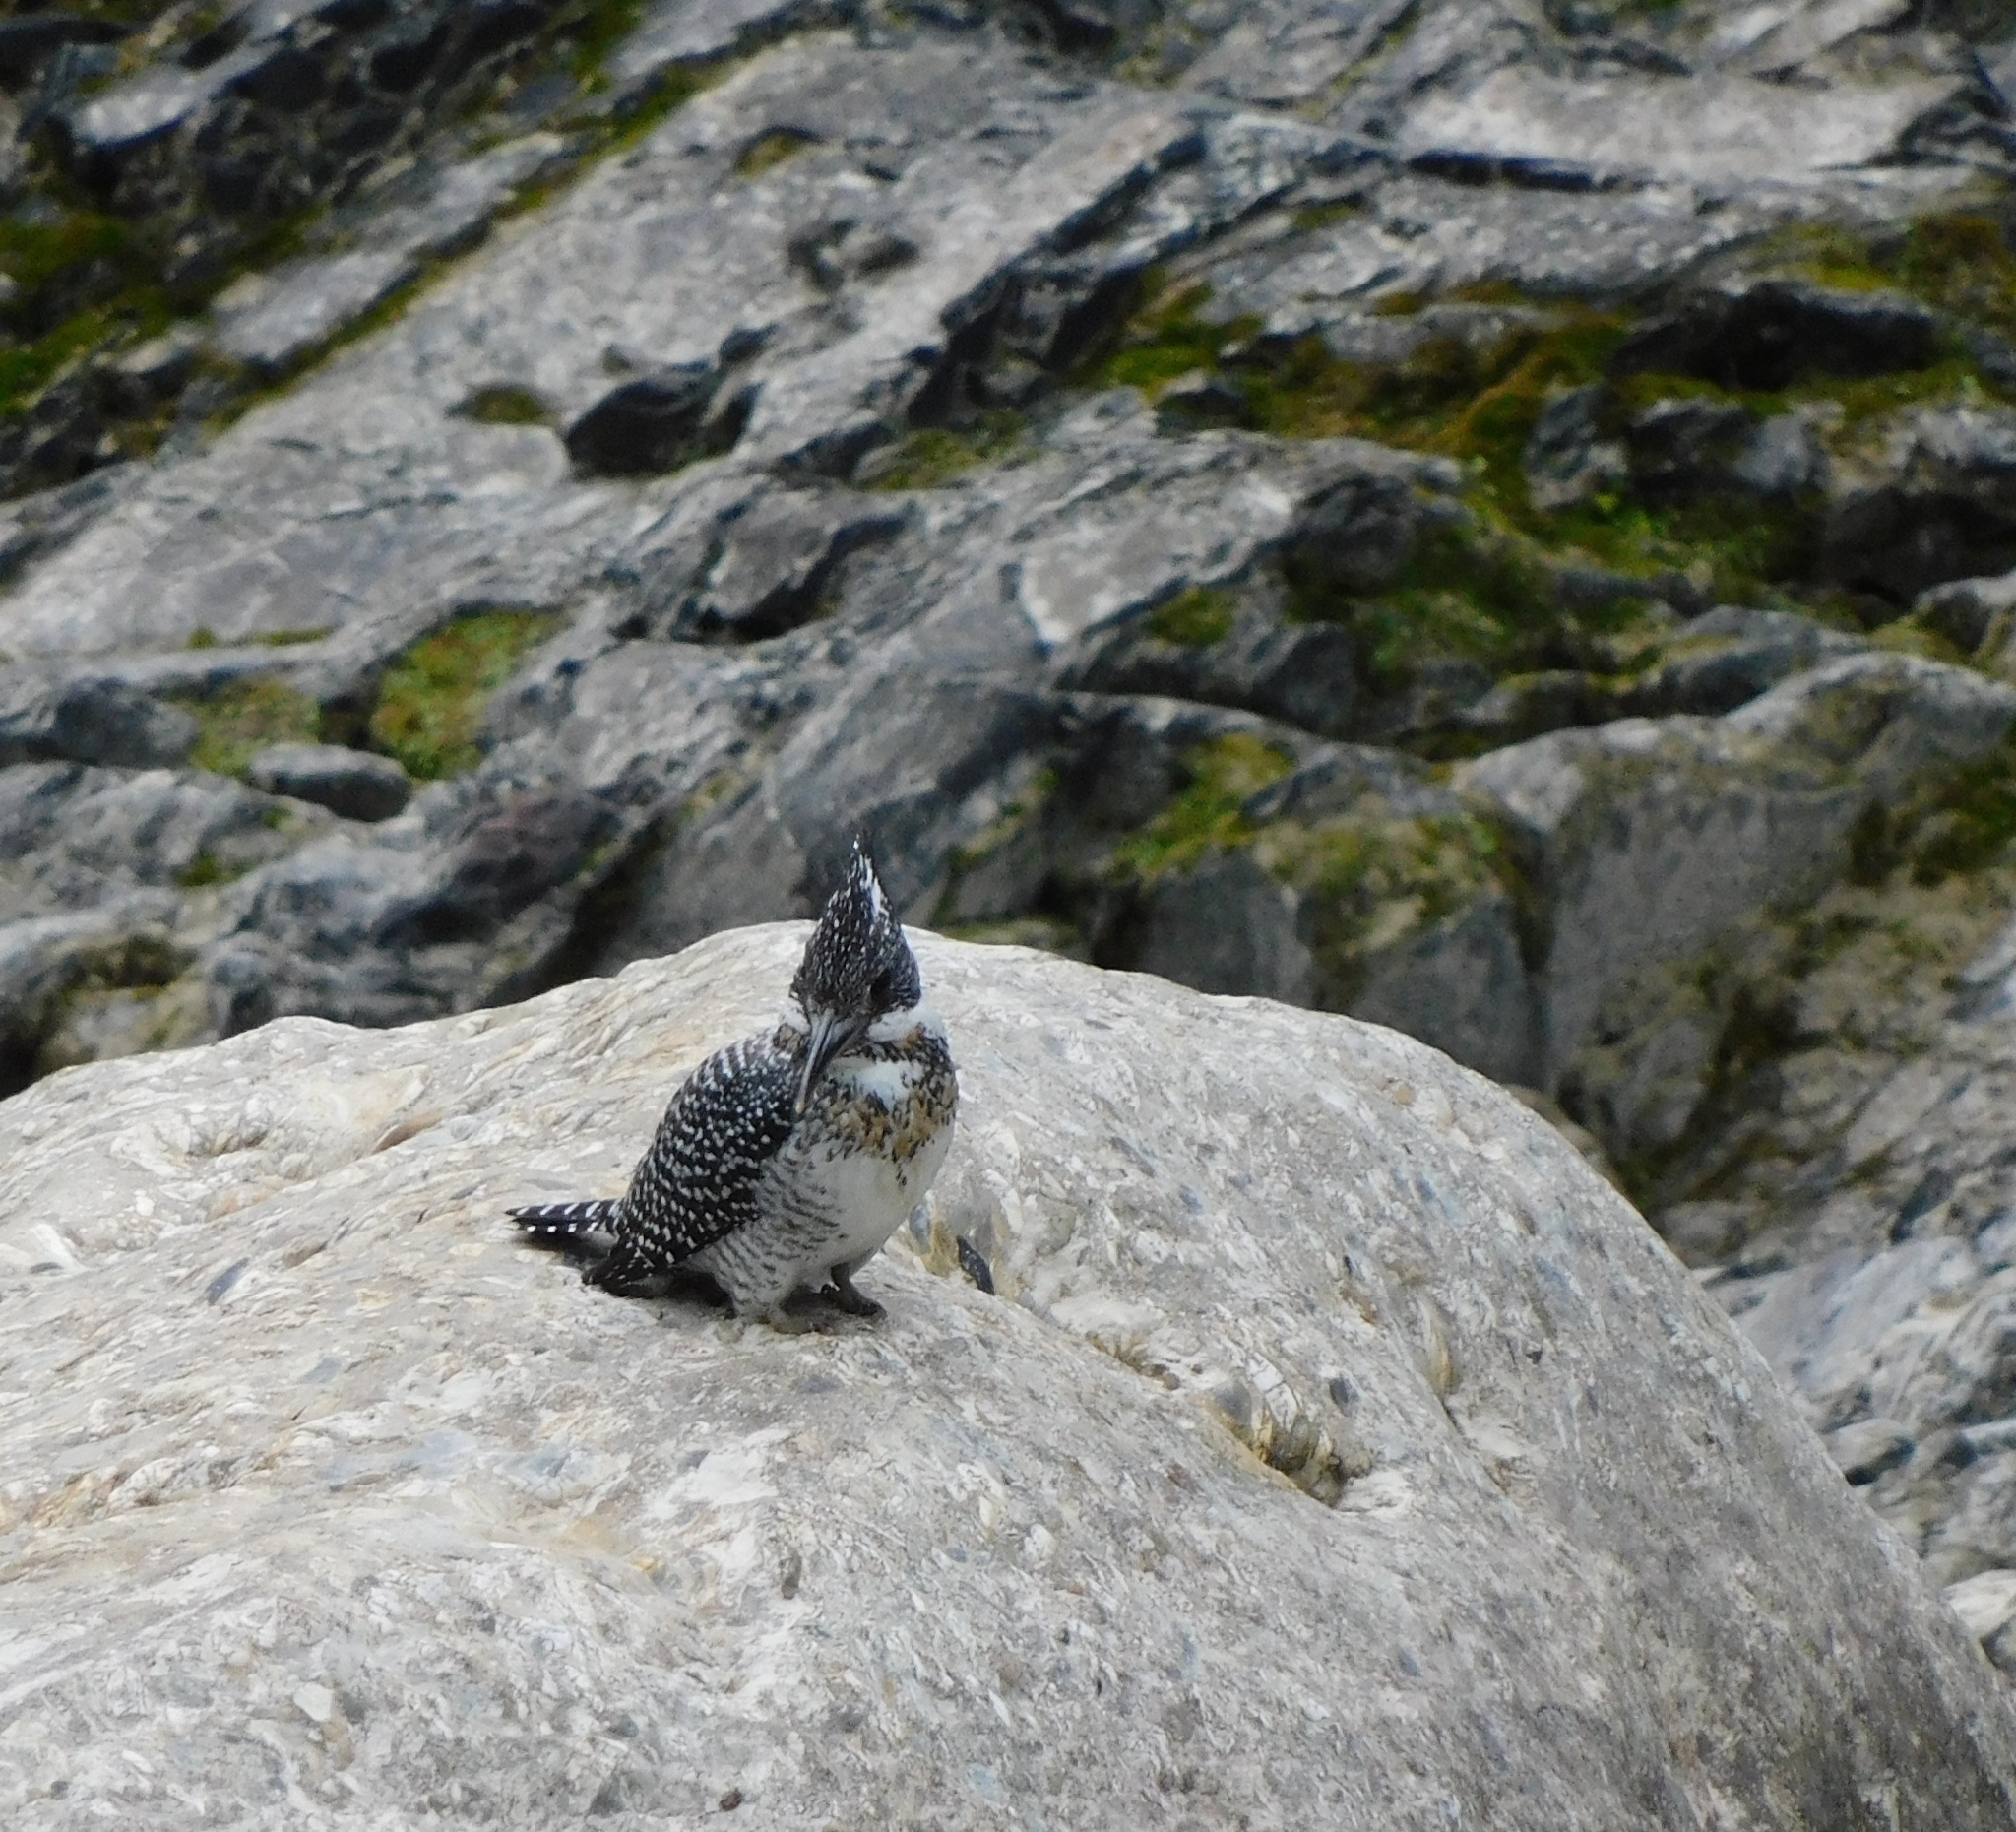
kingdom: Animalia
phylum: Chordata
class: Aves
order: Coraciiformes
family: Alcedinidae
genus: Megaceryle
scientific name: Megaceryle lugubris
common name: Crested kingfisher
